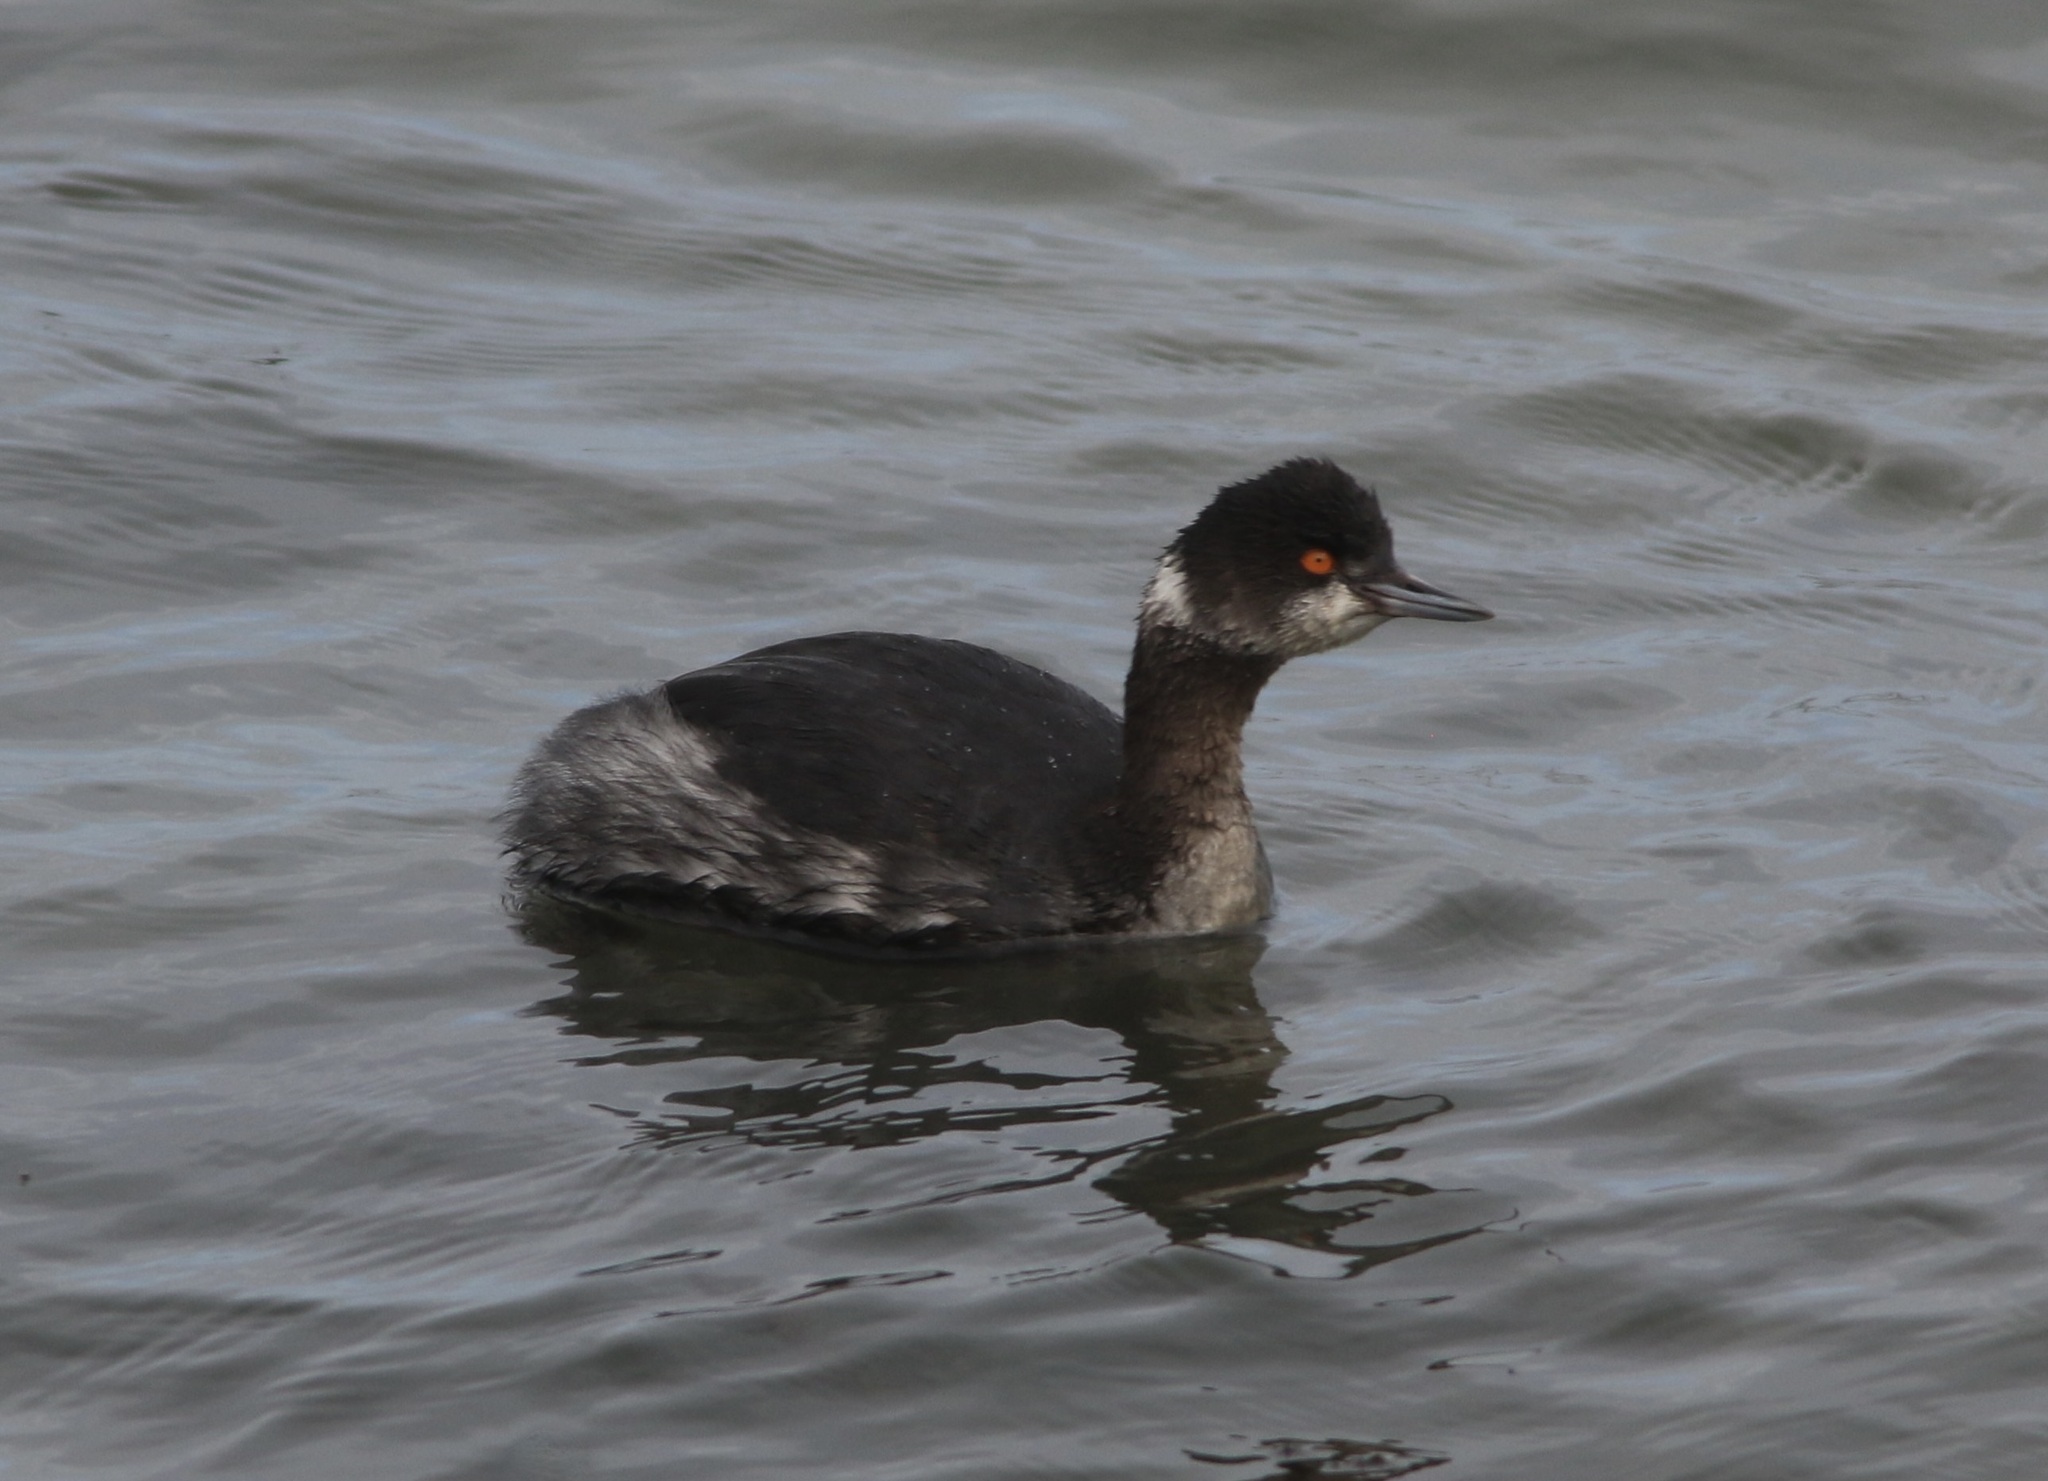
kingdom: Animalia
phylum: Chordata
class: Aves
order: Podicipediformes
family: Podicipedidae
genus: Podiceps
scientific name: Podiceps nigricollis
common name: Black-necked grebe
